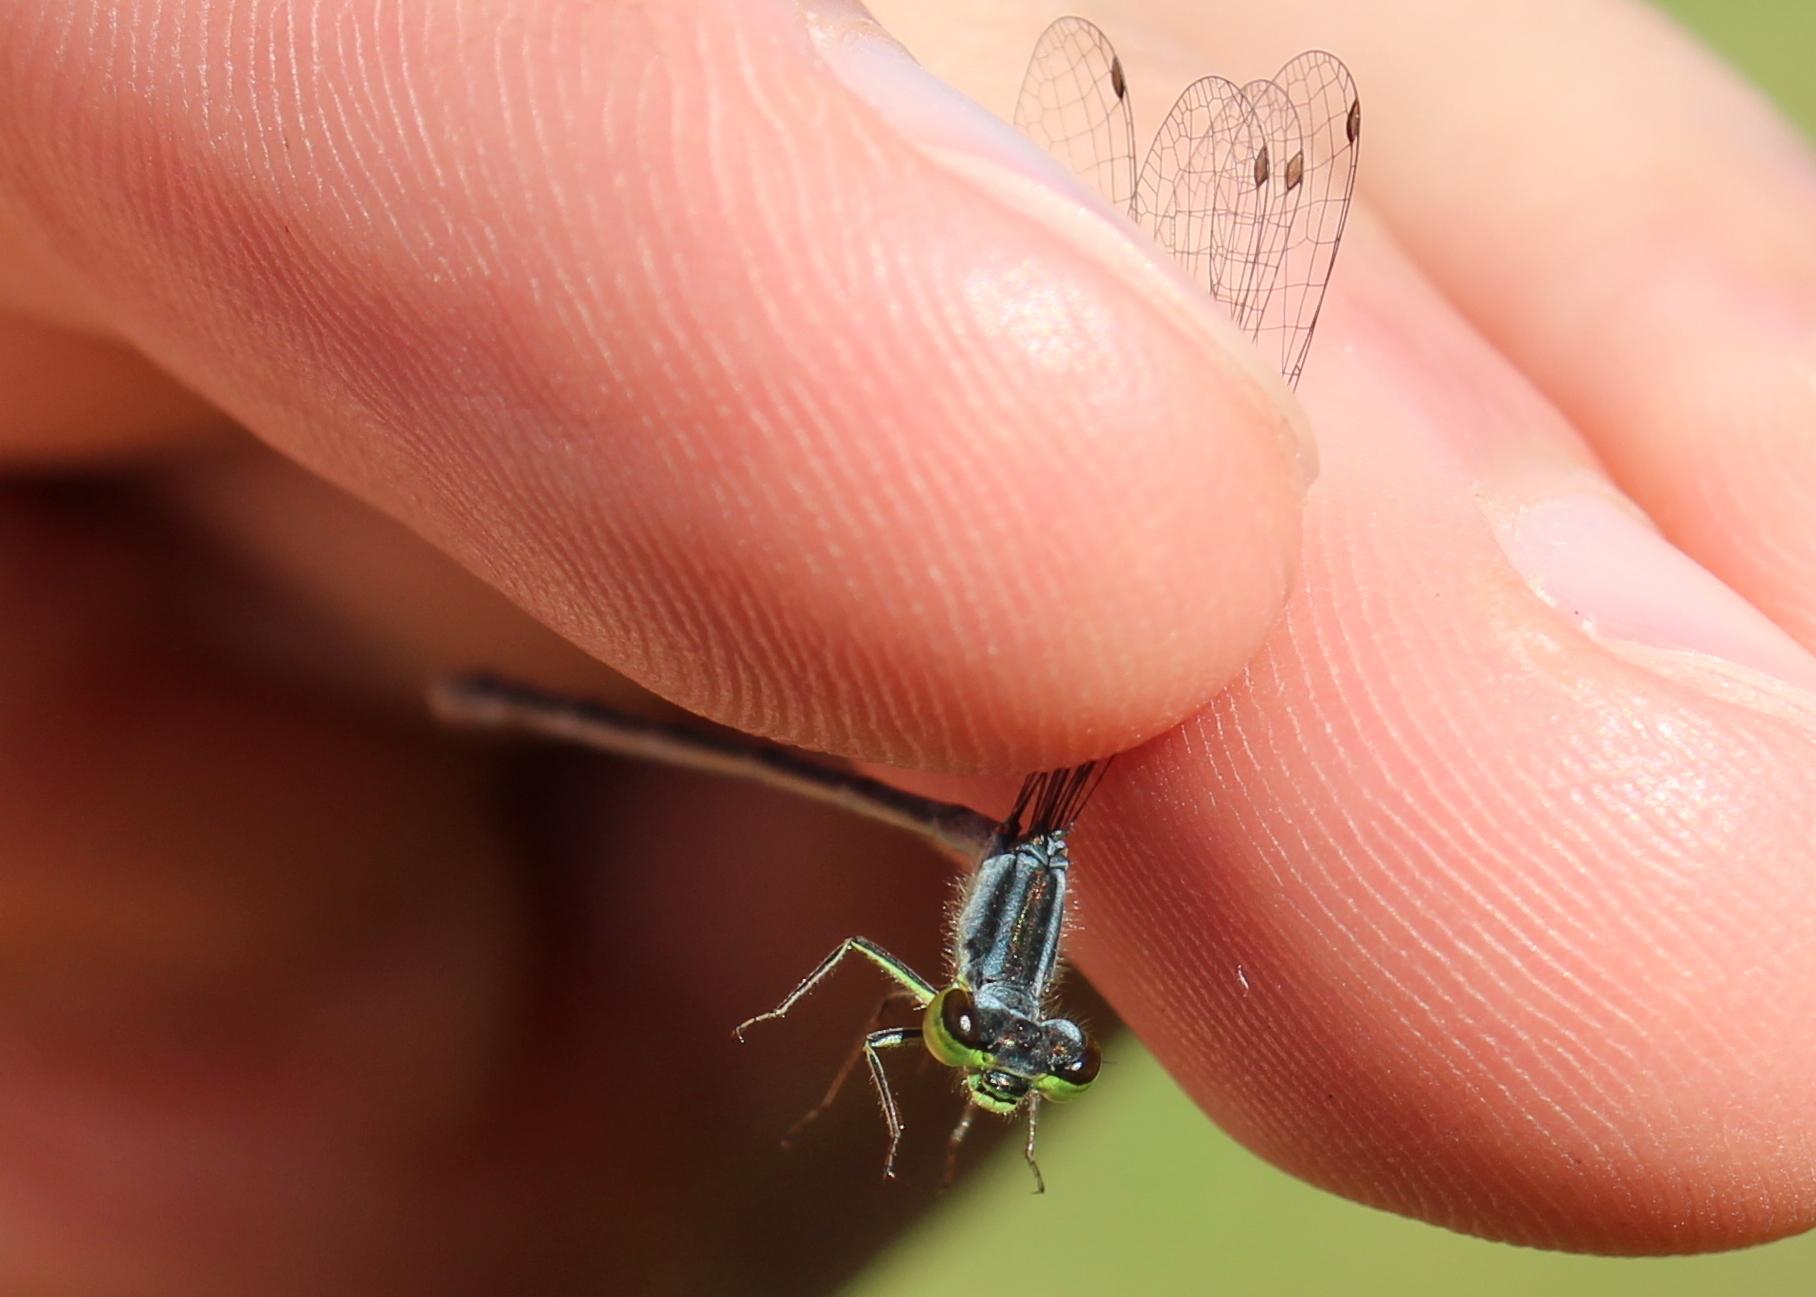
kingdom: Animalia
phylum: Arthropoda
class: Insecta
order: Odonata
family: Coenagrionidae
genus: Ischnura
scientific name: Ischnura verticalis
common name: Eastern forktail
